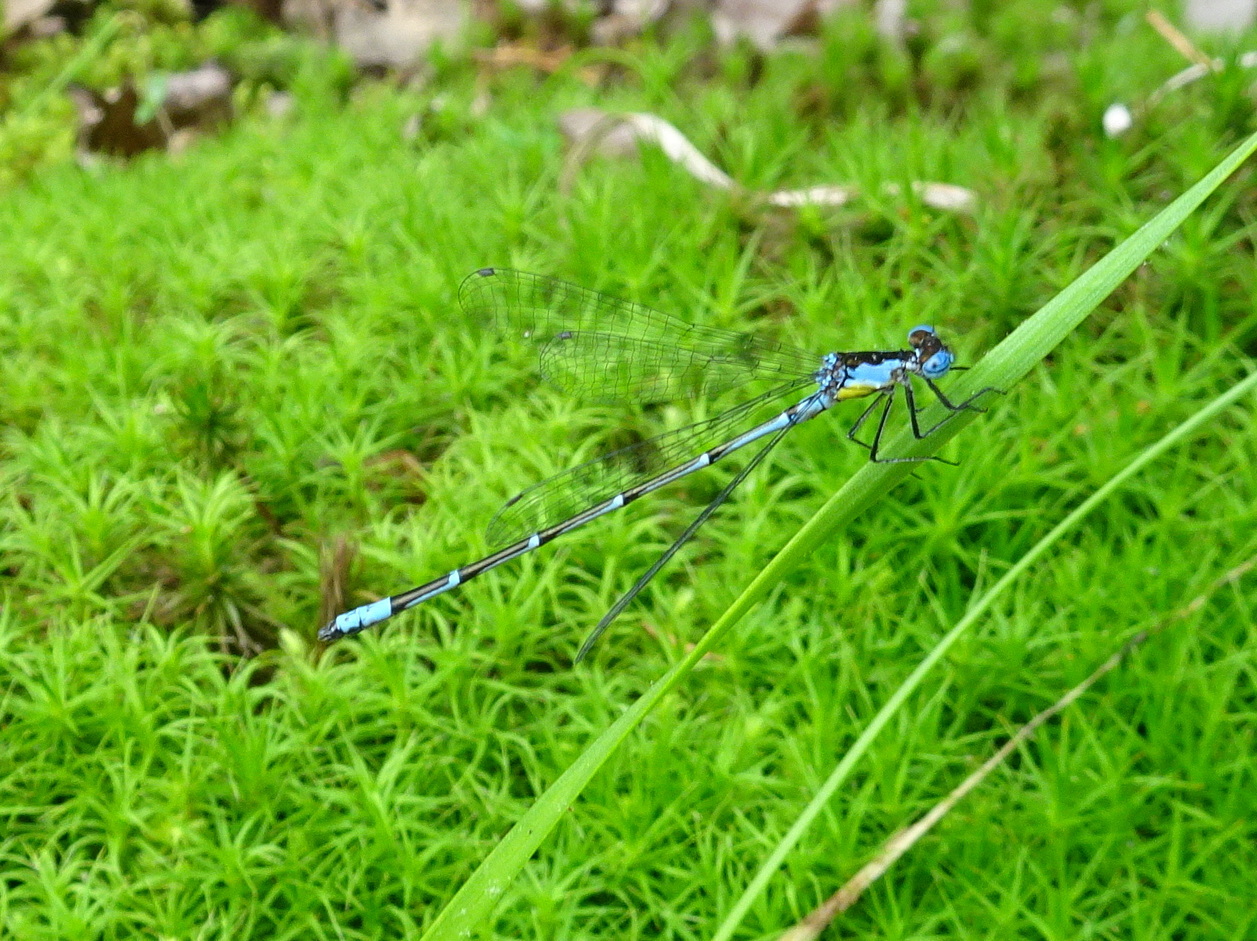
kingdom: Animalia
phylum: Arthropoda
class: Insecta
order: Odonata
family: Coenagrionidae
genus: Chromagrion
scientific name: Chromagrion conditum
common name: Aurora damsel
